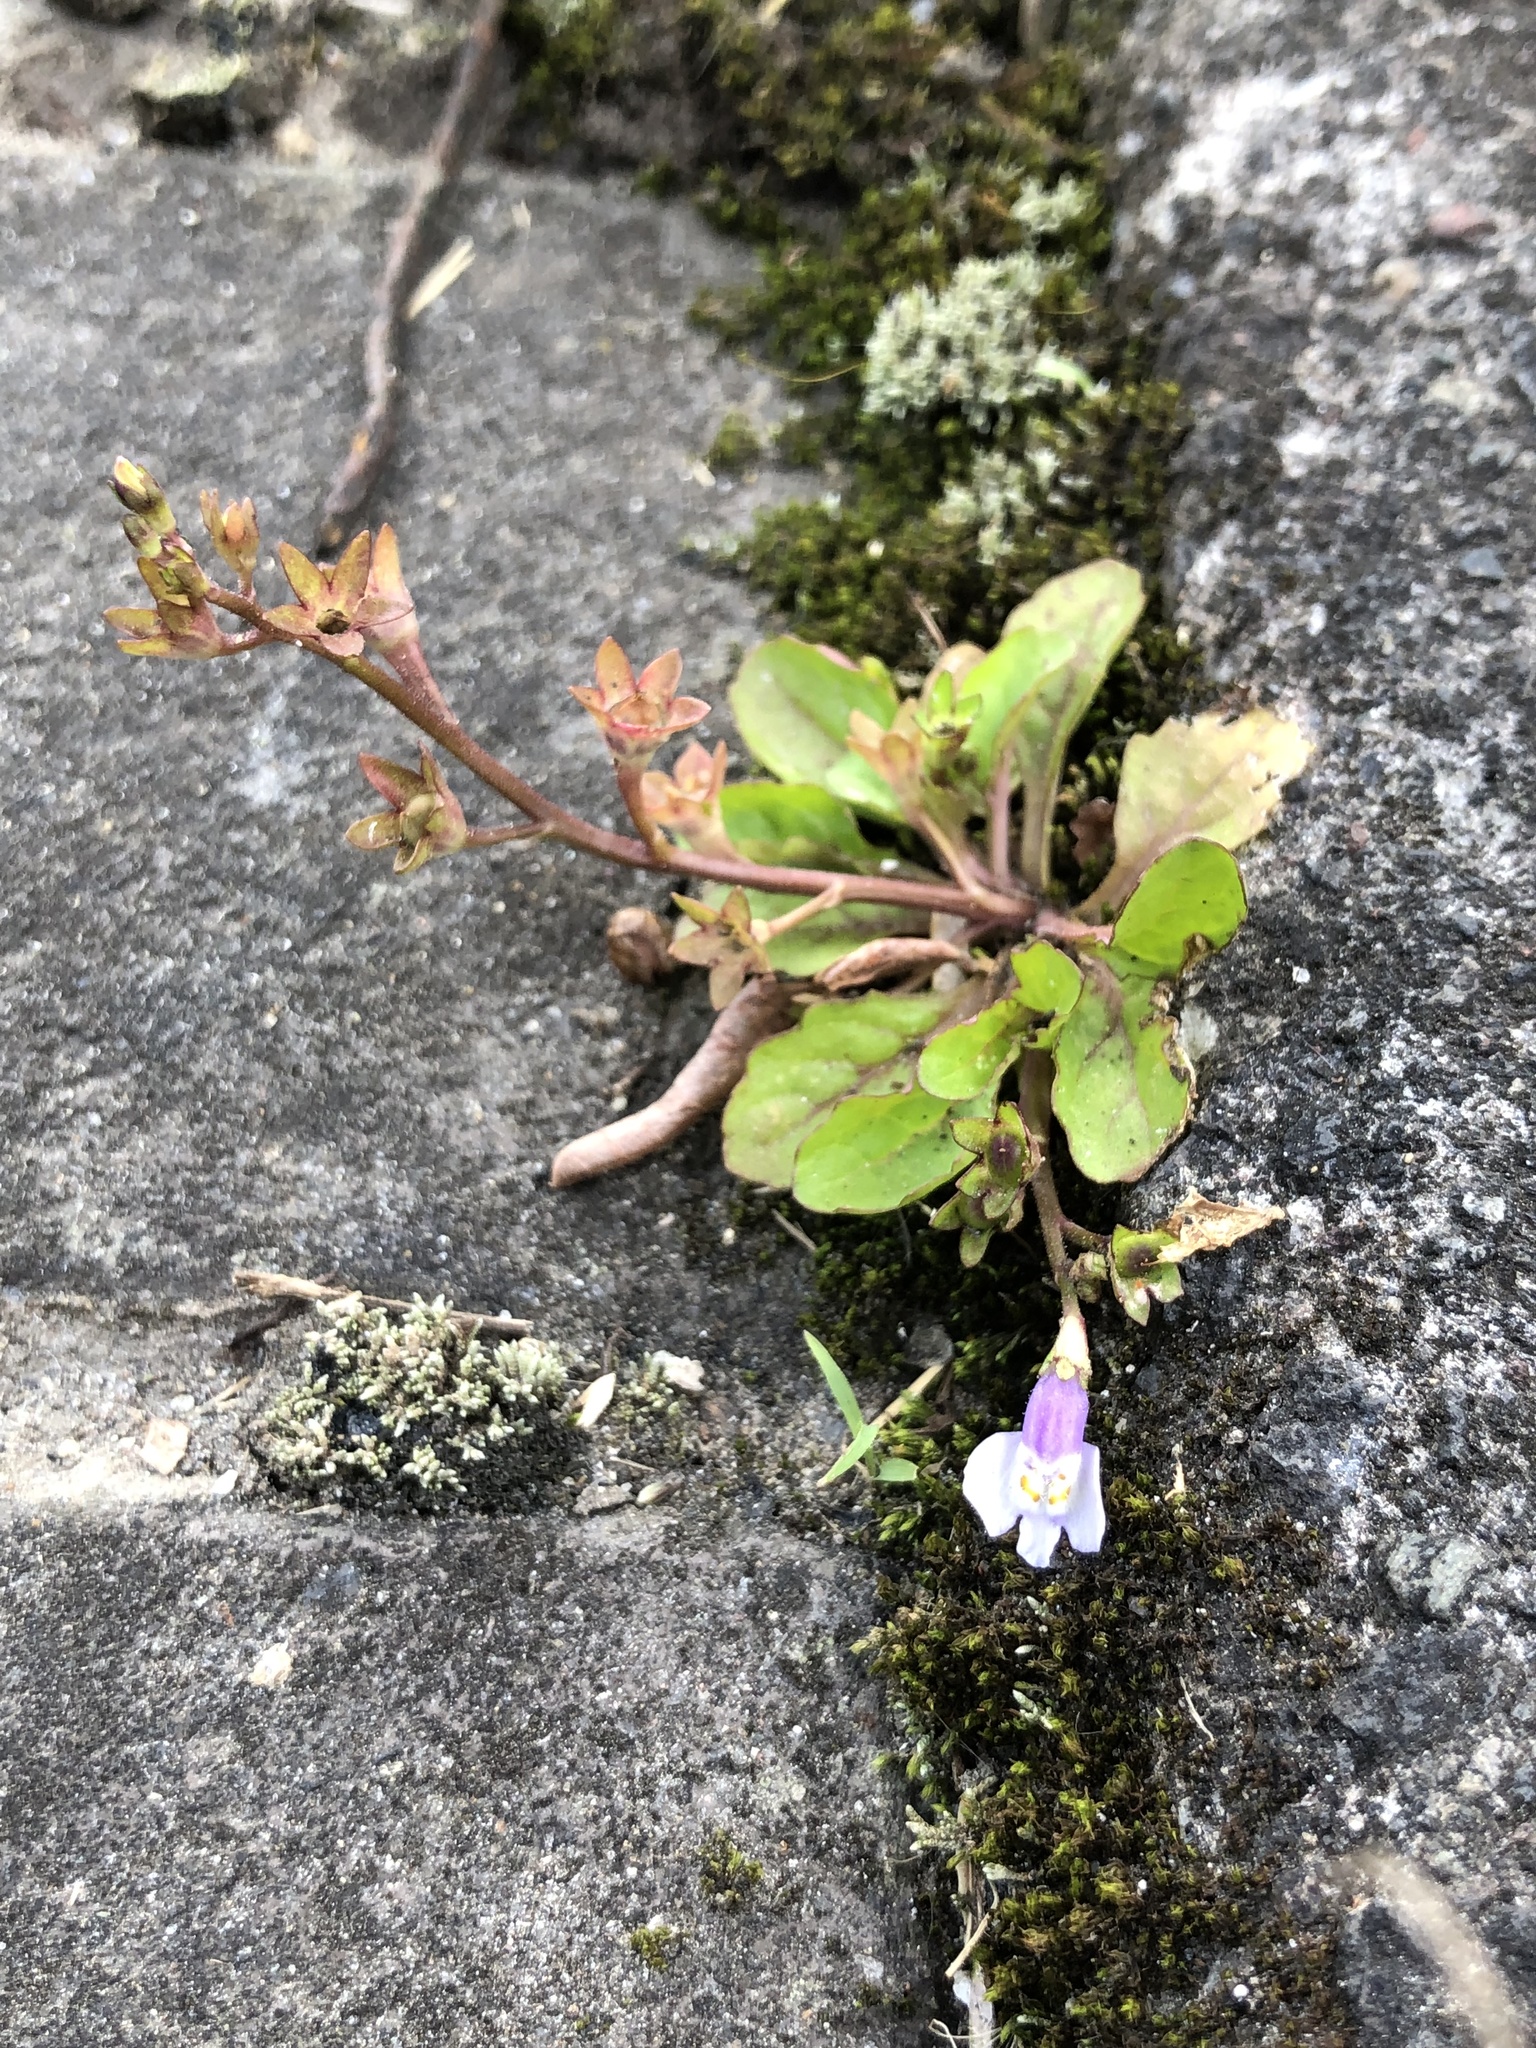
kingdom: Plantae
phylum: Tracheophyta
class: Magnoliopsida
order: Lamiales
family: Linderniaceae
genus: Torenia
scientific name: Torenia crustacea
